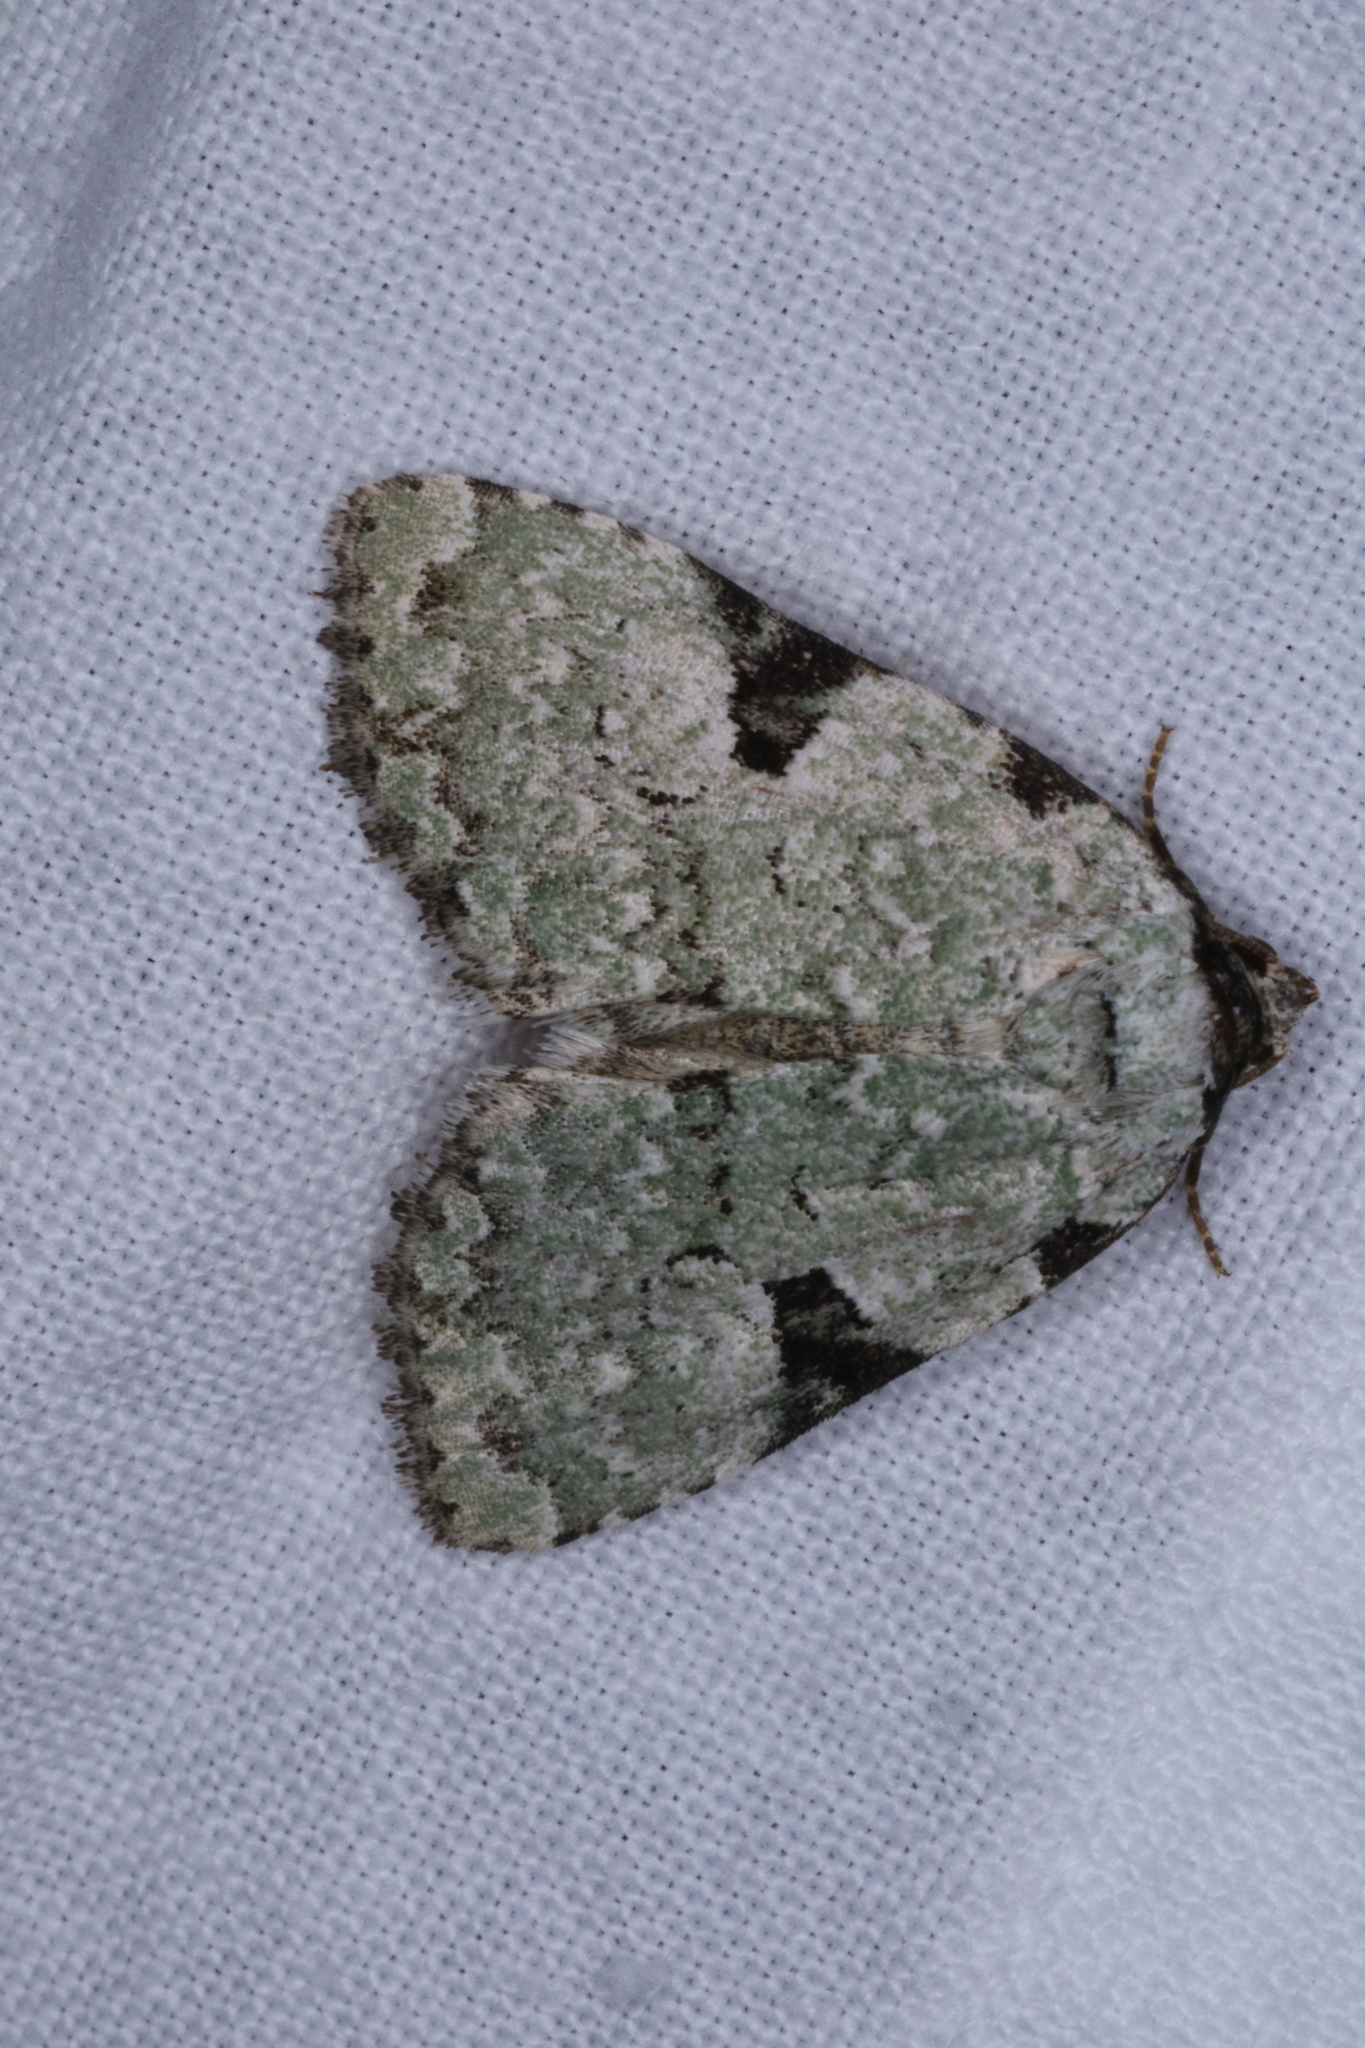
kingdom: Animalia
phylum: Arthropoda
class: Insecta
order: Lepidoptera
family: Noctuidae
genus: Leuconycta
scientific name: Leuconycta diphteroides
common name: Green leuconycta moth
